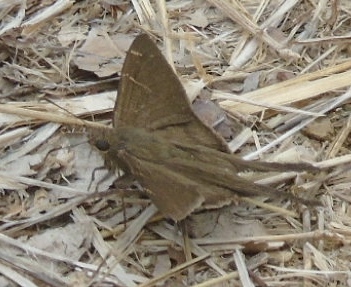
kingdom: Animalia
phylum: Arthropoda
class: Insecta
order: Lepidoptera
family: Hesperiidae
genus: Urbanus
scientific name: Urbanus procne
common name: Brown longtail
